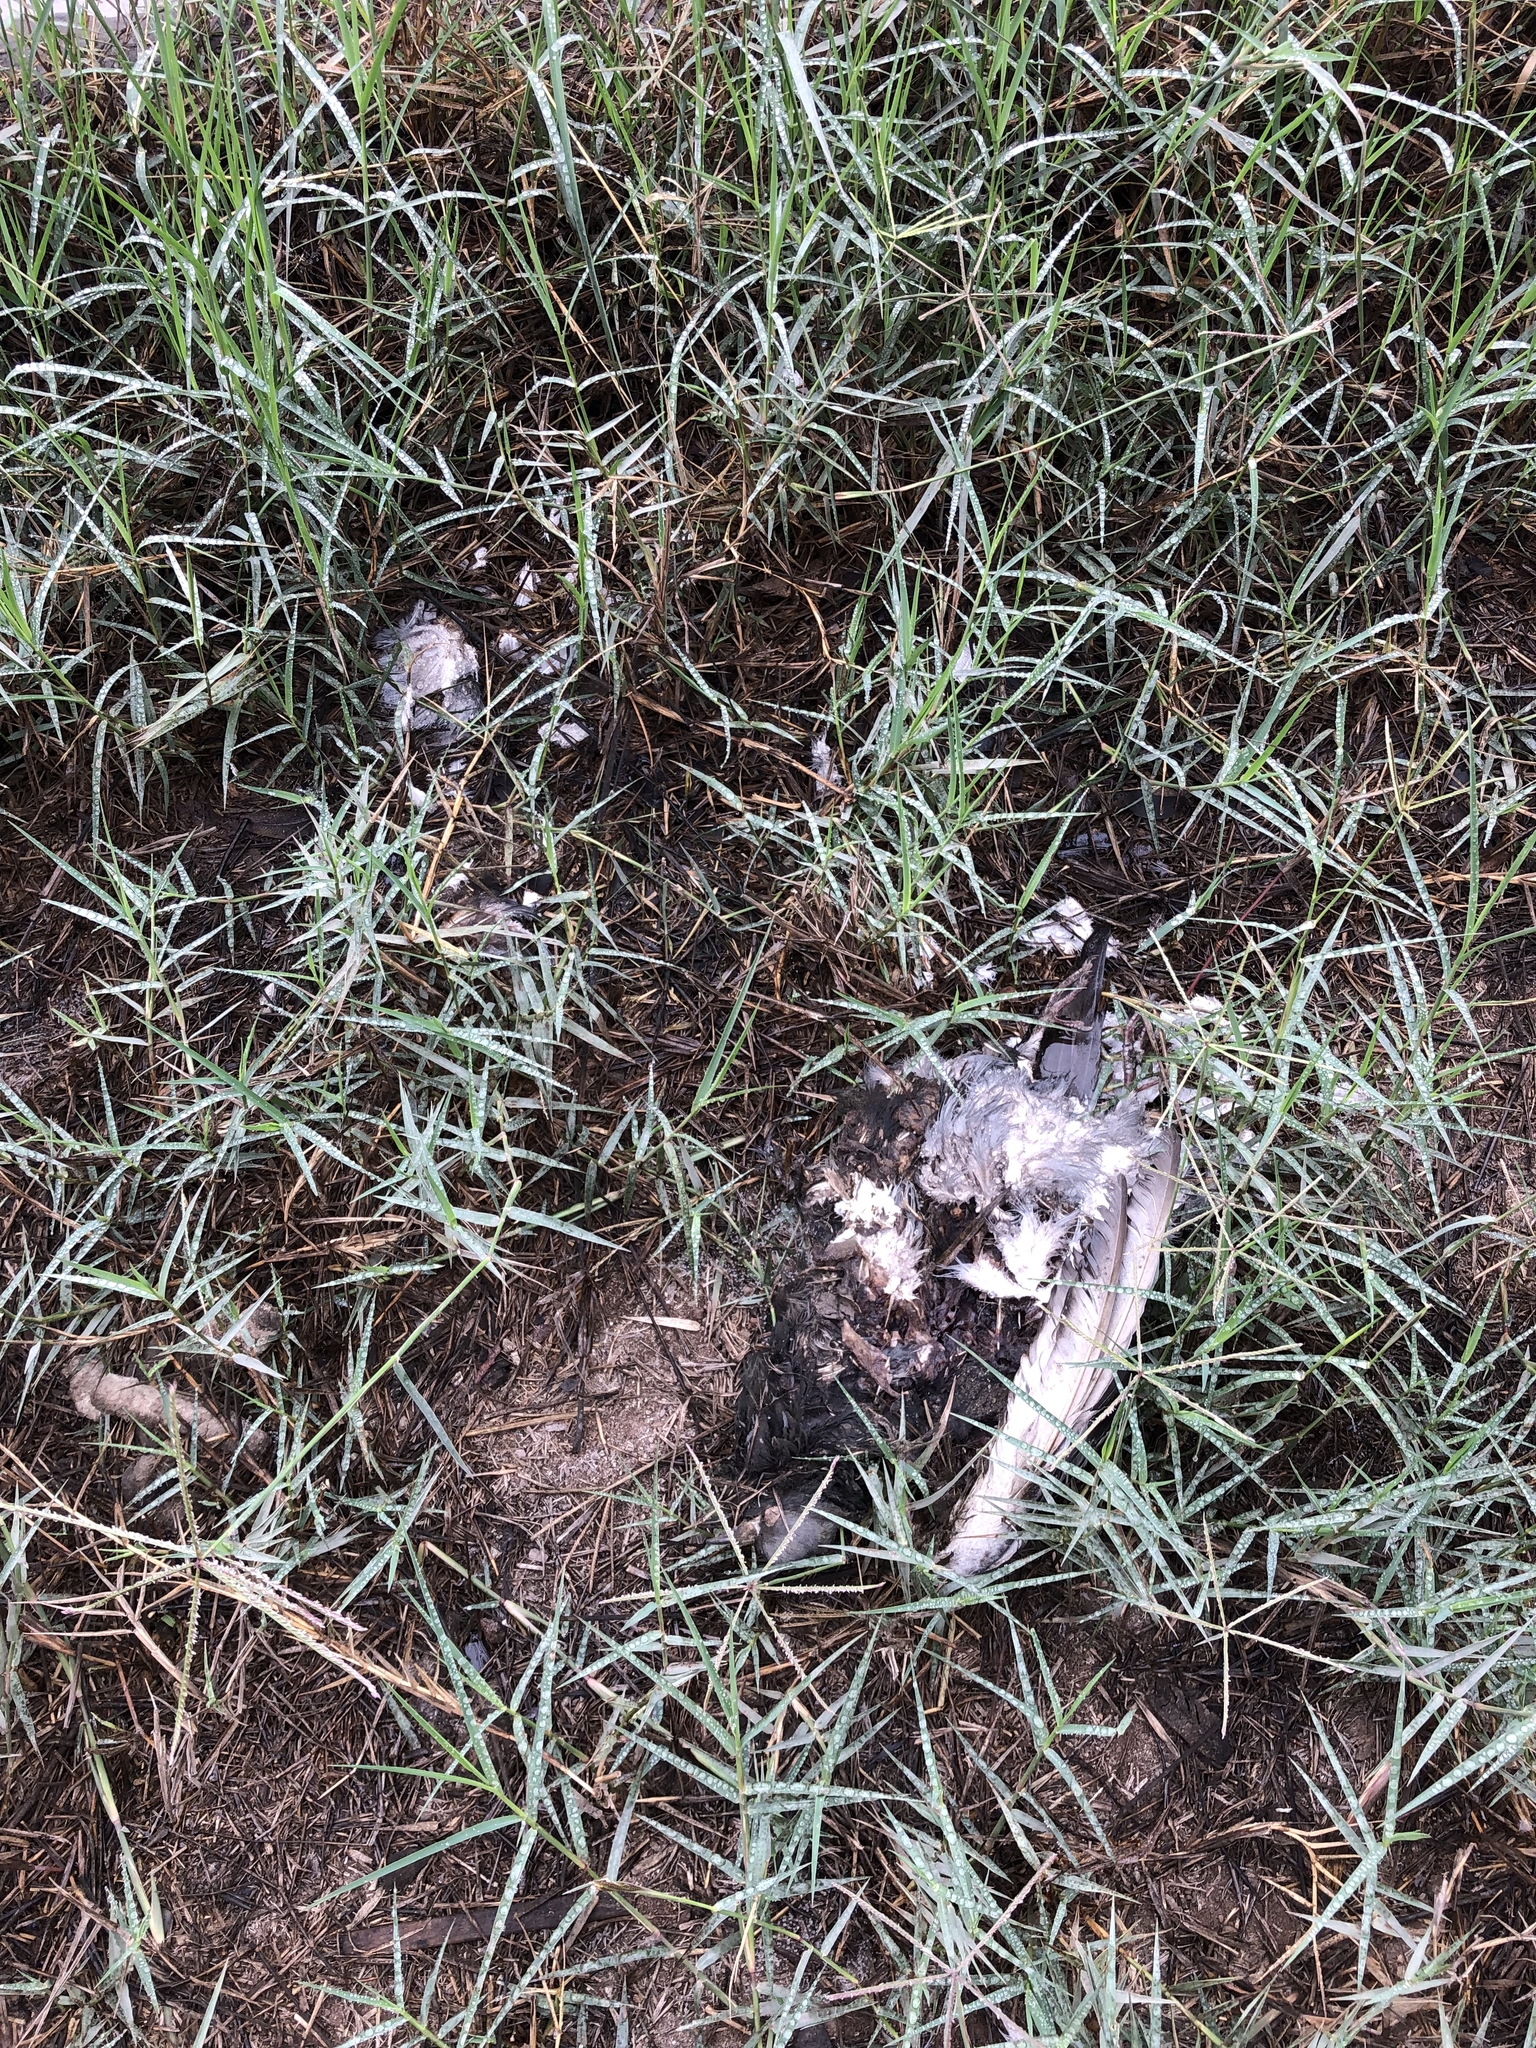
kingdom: Animalia
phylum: Chordata
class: Aves
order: Columbiformes
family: Columbidae
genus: Columba
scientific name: Columba livia
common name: Rock pigeon
